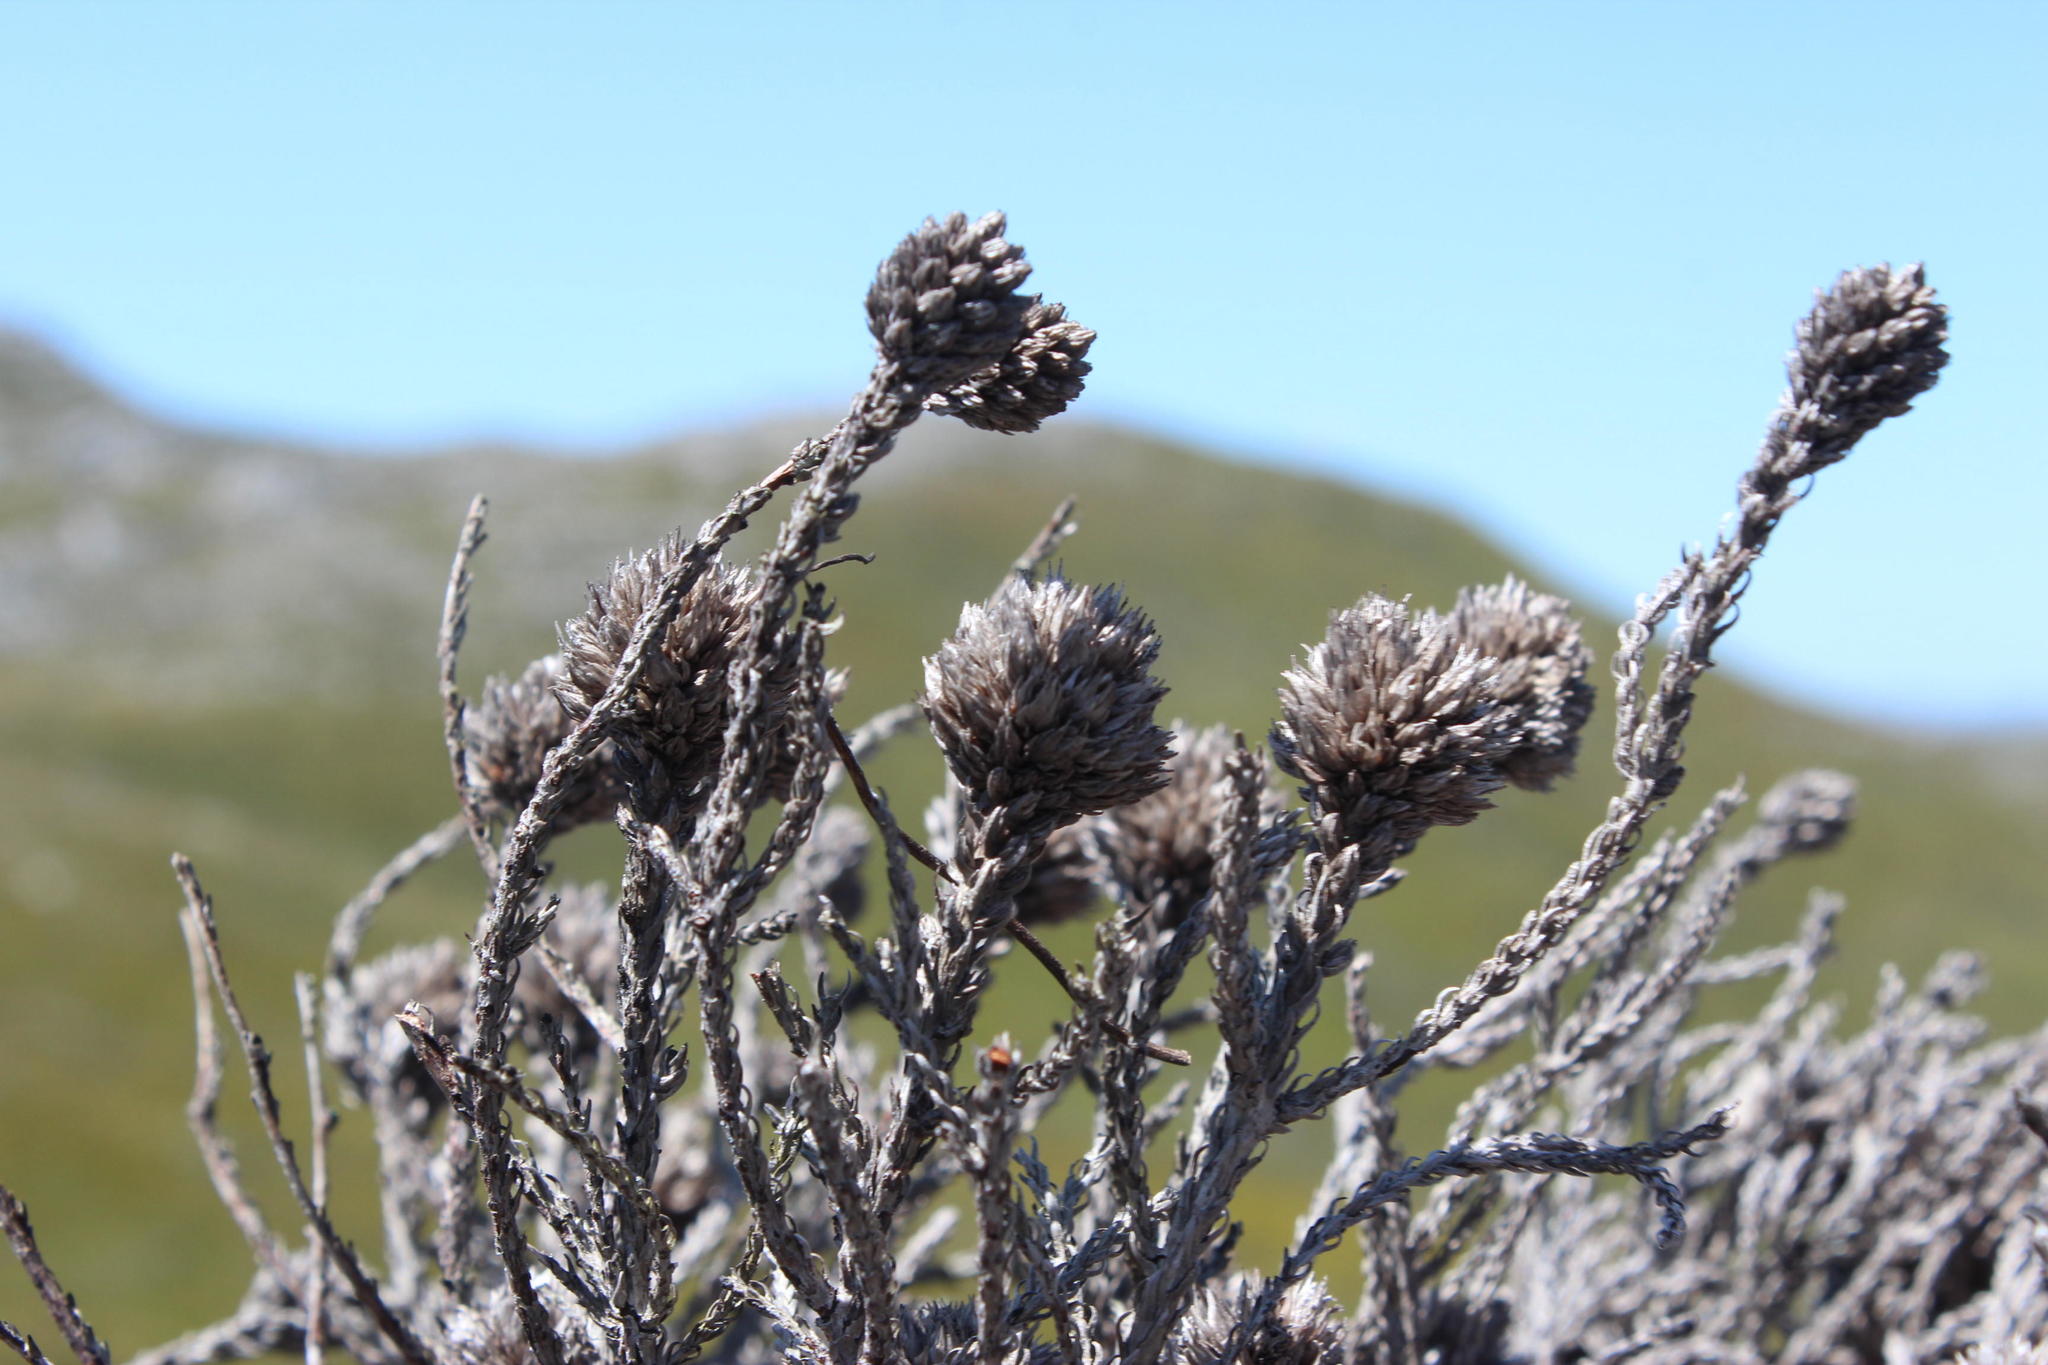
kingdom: Plantae
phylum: Tracheophyta
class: Magnoliopsida
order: Bruniales
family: Bruniaceae
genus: Brunia
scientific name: Brunia fragarioides
